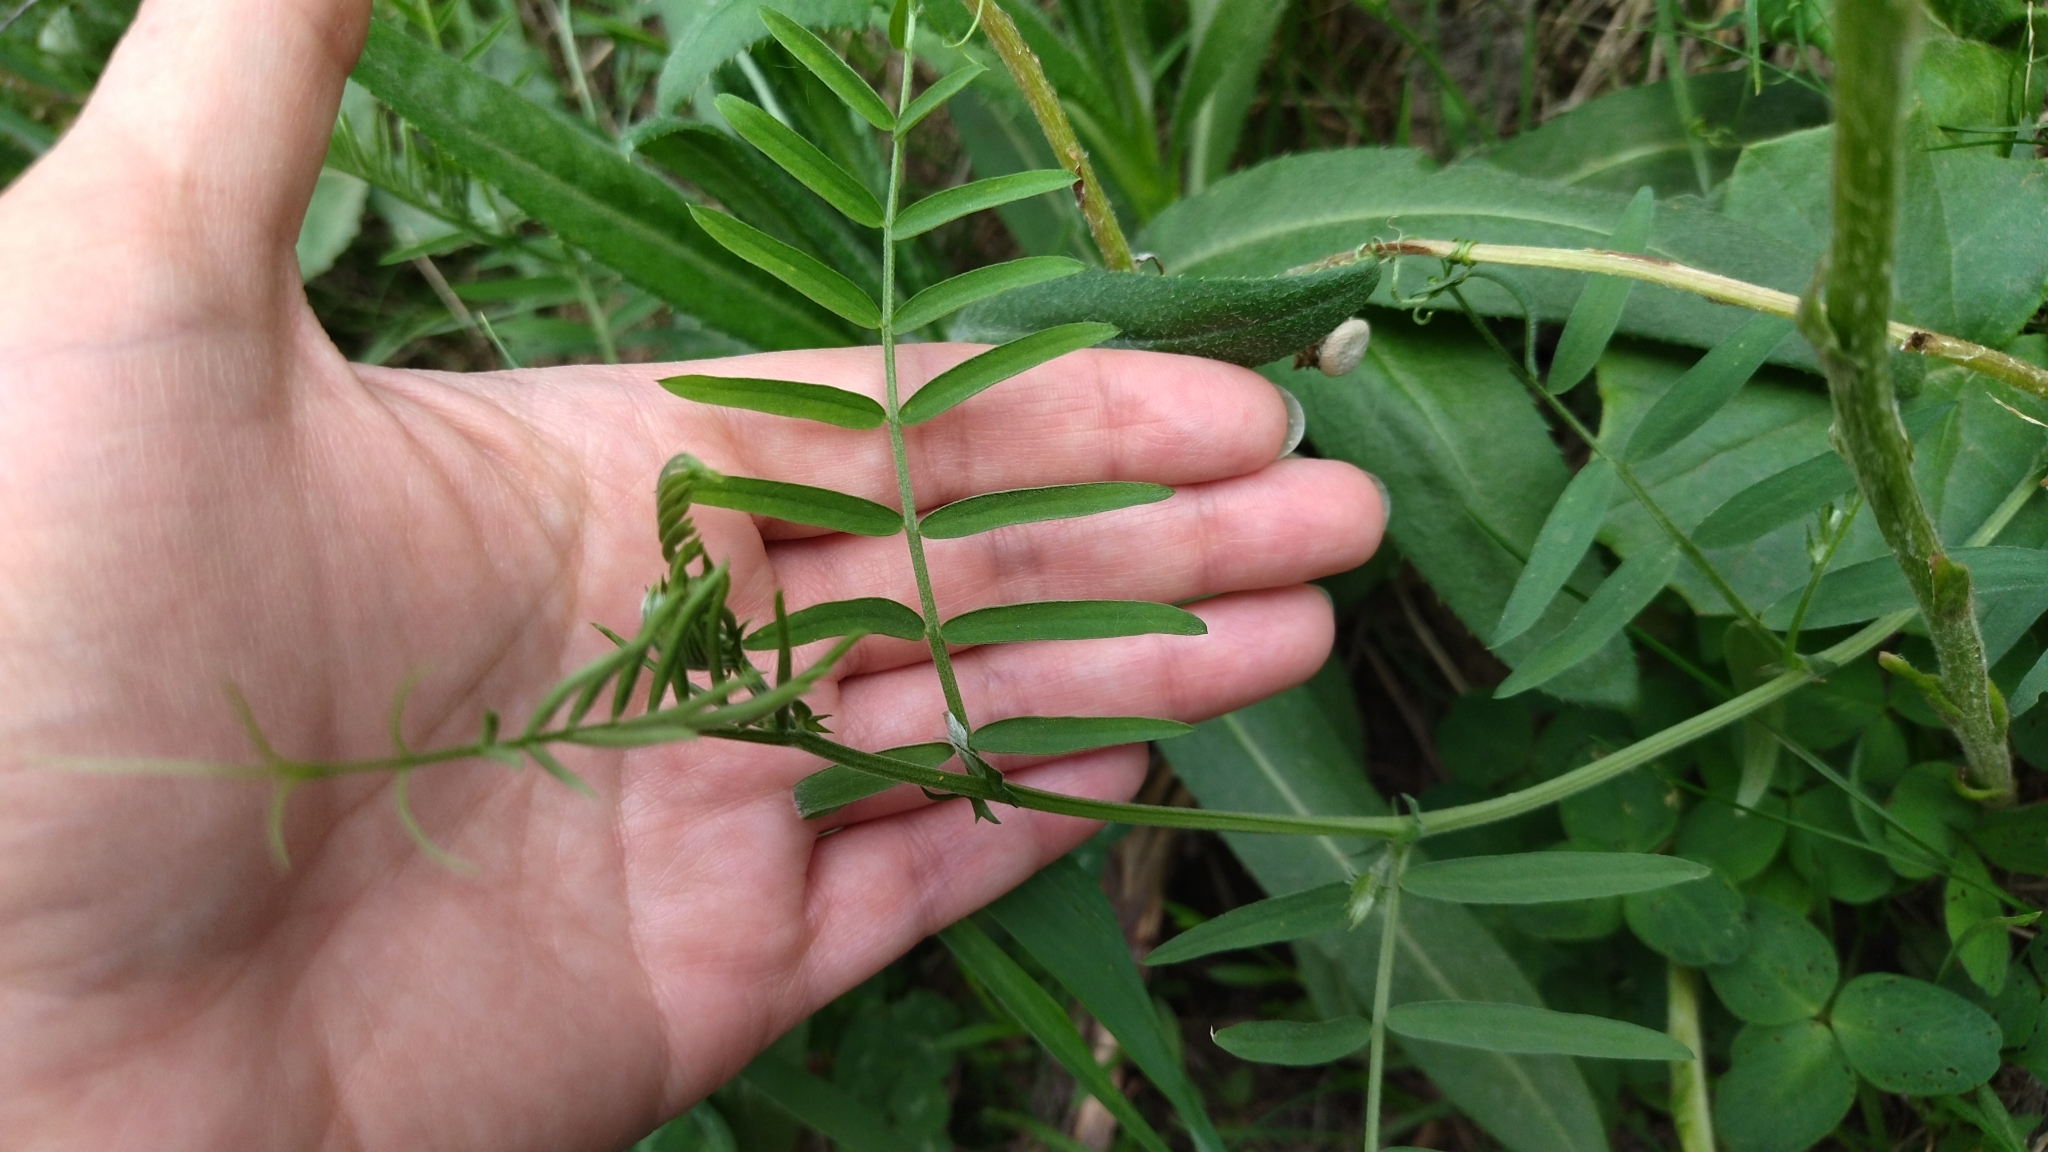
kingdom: Plantae
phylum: Tracheophyta
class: Magnoliopsida
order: Fabales
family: Fabaceae
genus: Vicia
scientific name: Vicia cracca
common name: Bird vetch
